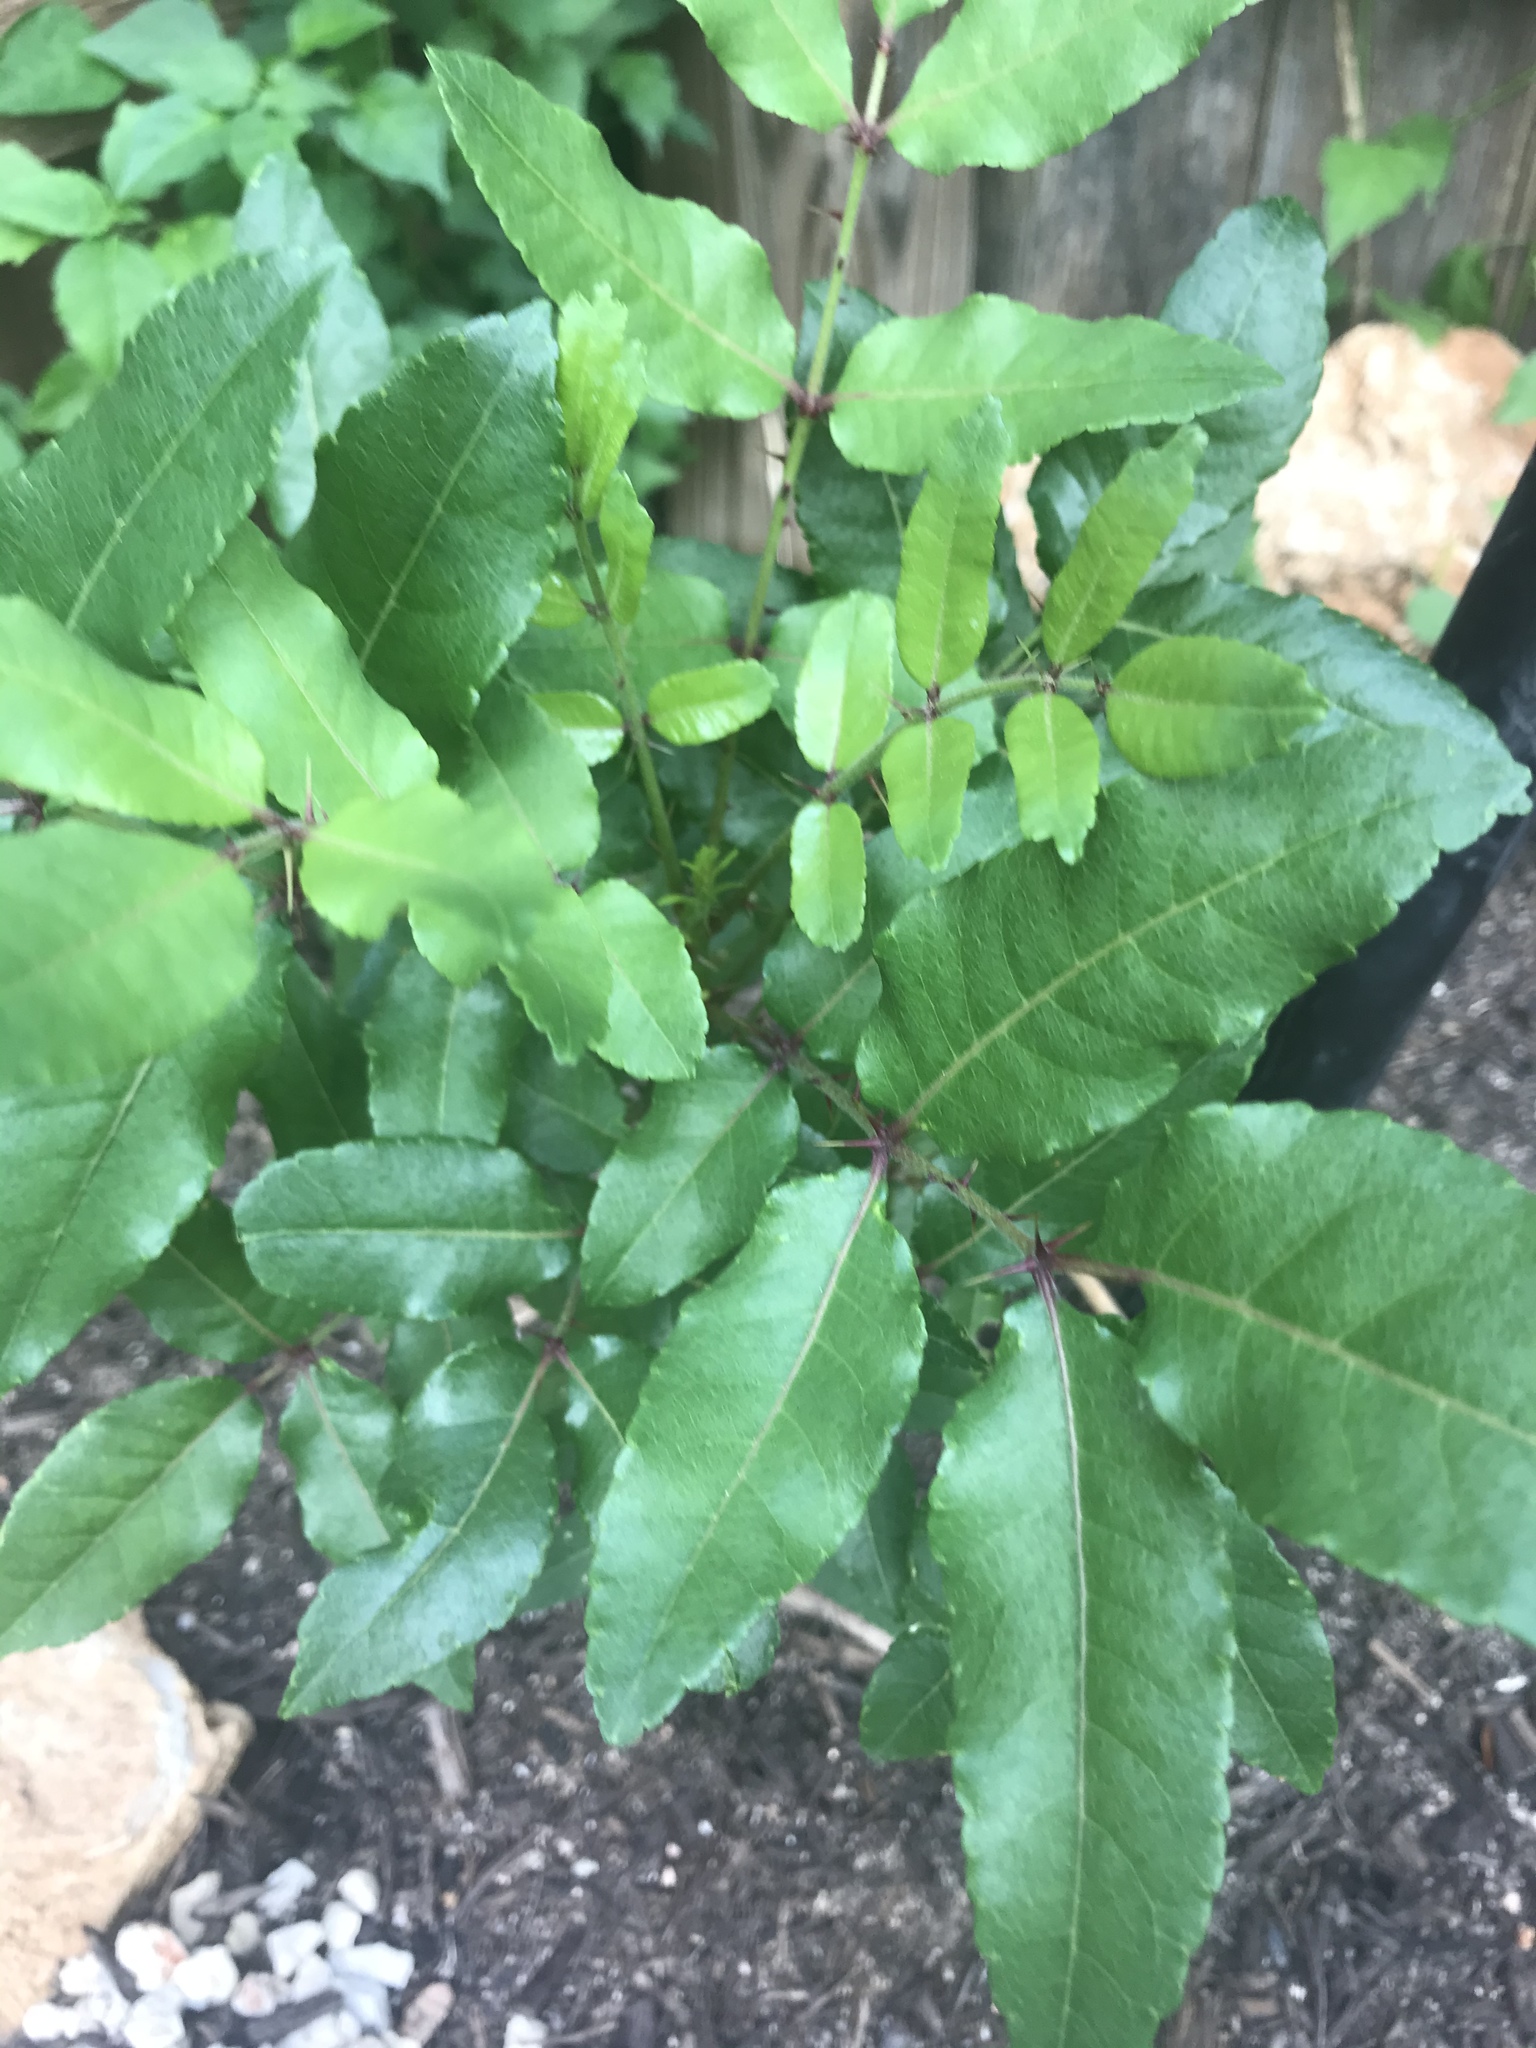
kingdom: Plantae
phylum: Tracheophyta
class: Magnoliopsida
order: Sapindales
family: Rutaceae
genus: Zanthoxylum
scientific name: Zanthoxylum clava-herculis
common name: Hercules'-club
